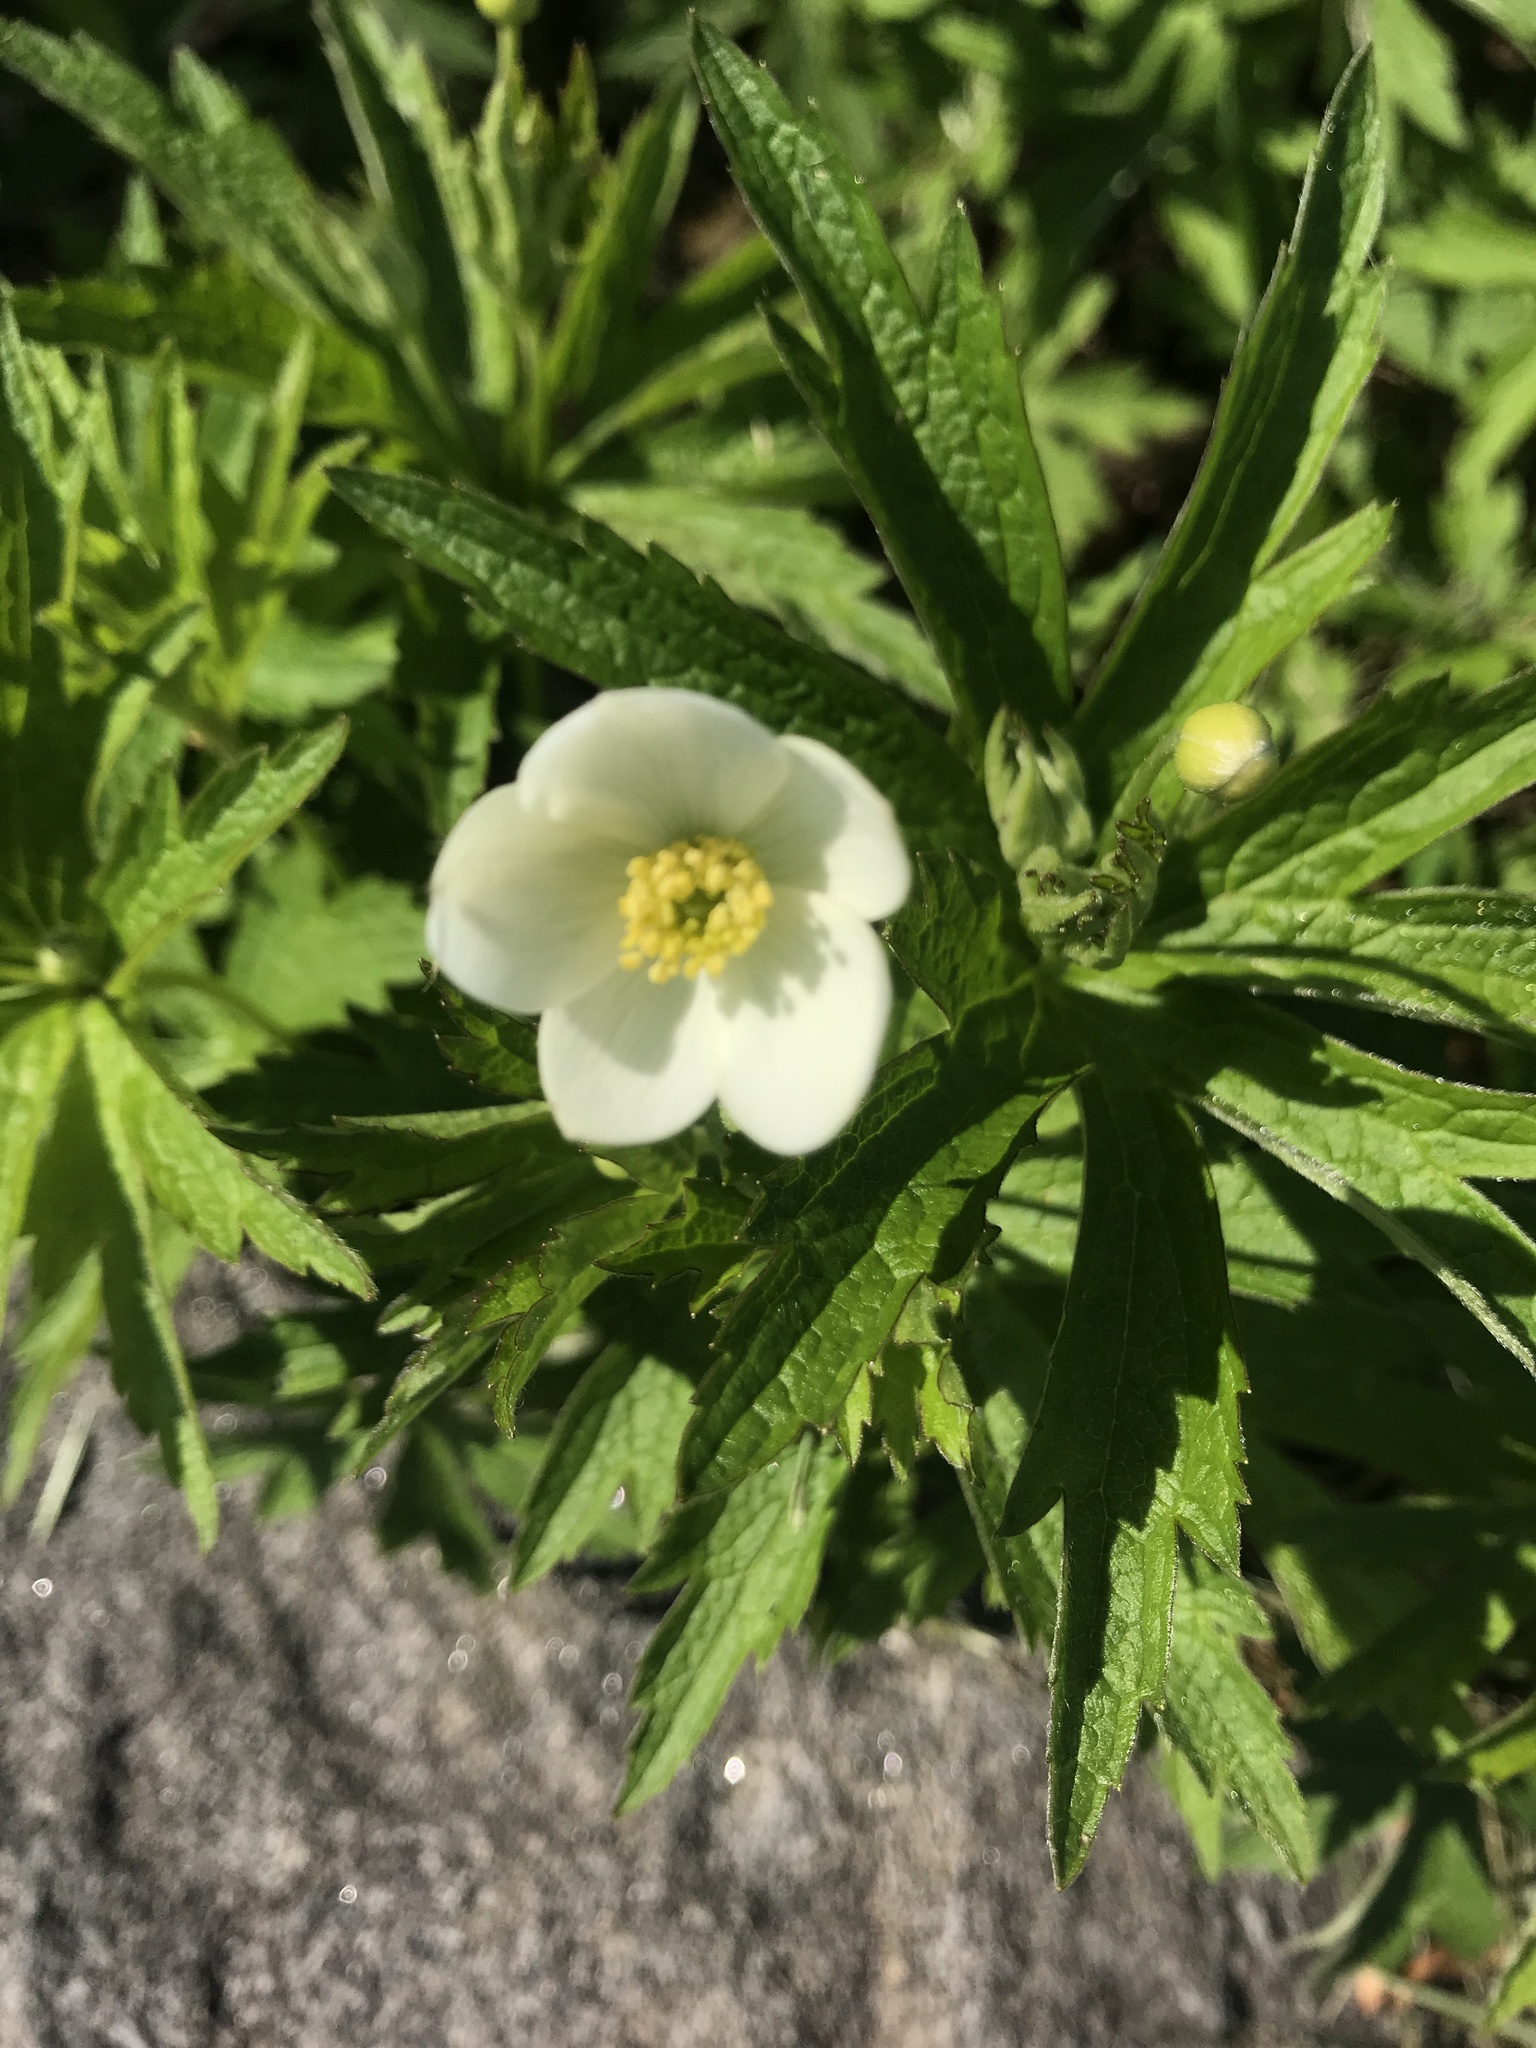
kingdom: Plantae
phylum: Tracheophyta
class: Magnoliopsida
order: Ranunculales
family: Ranunculaceae
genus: Anemonastrum
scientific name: Anemonastrum canadense
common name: Canada anemone
